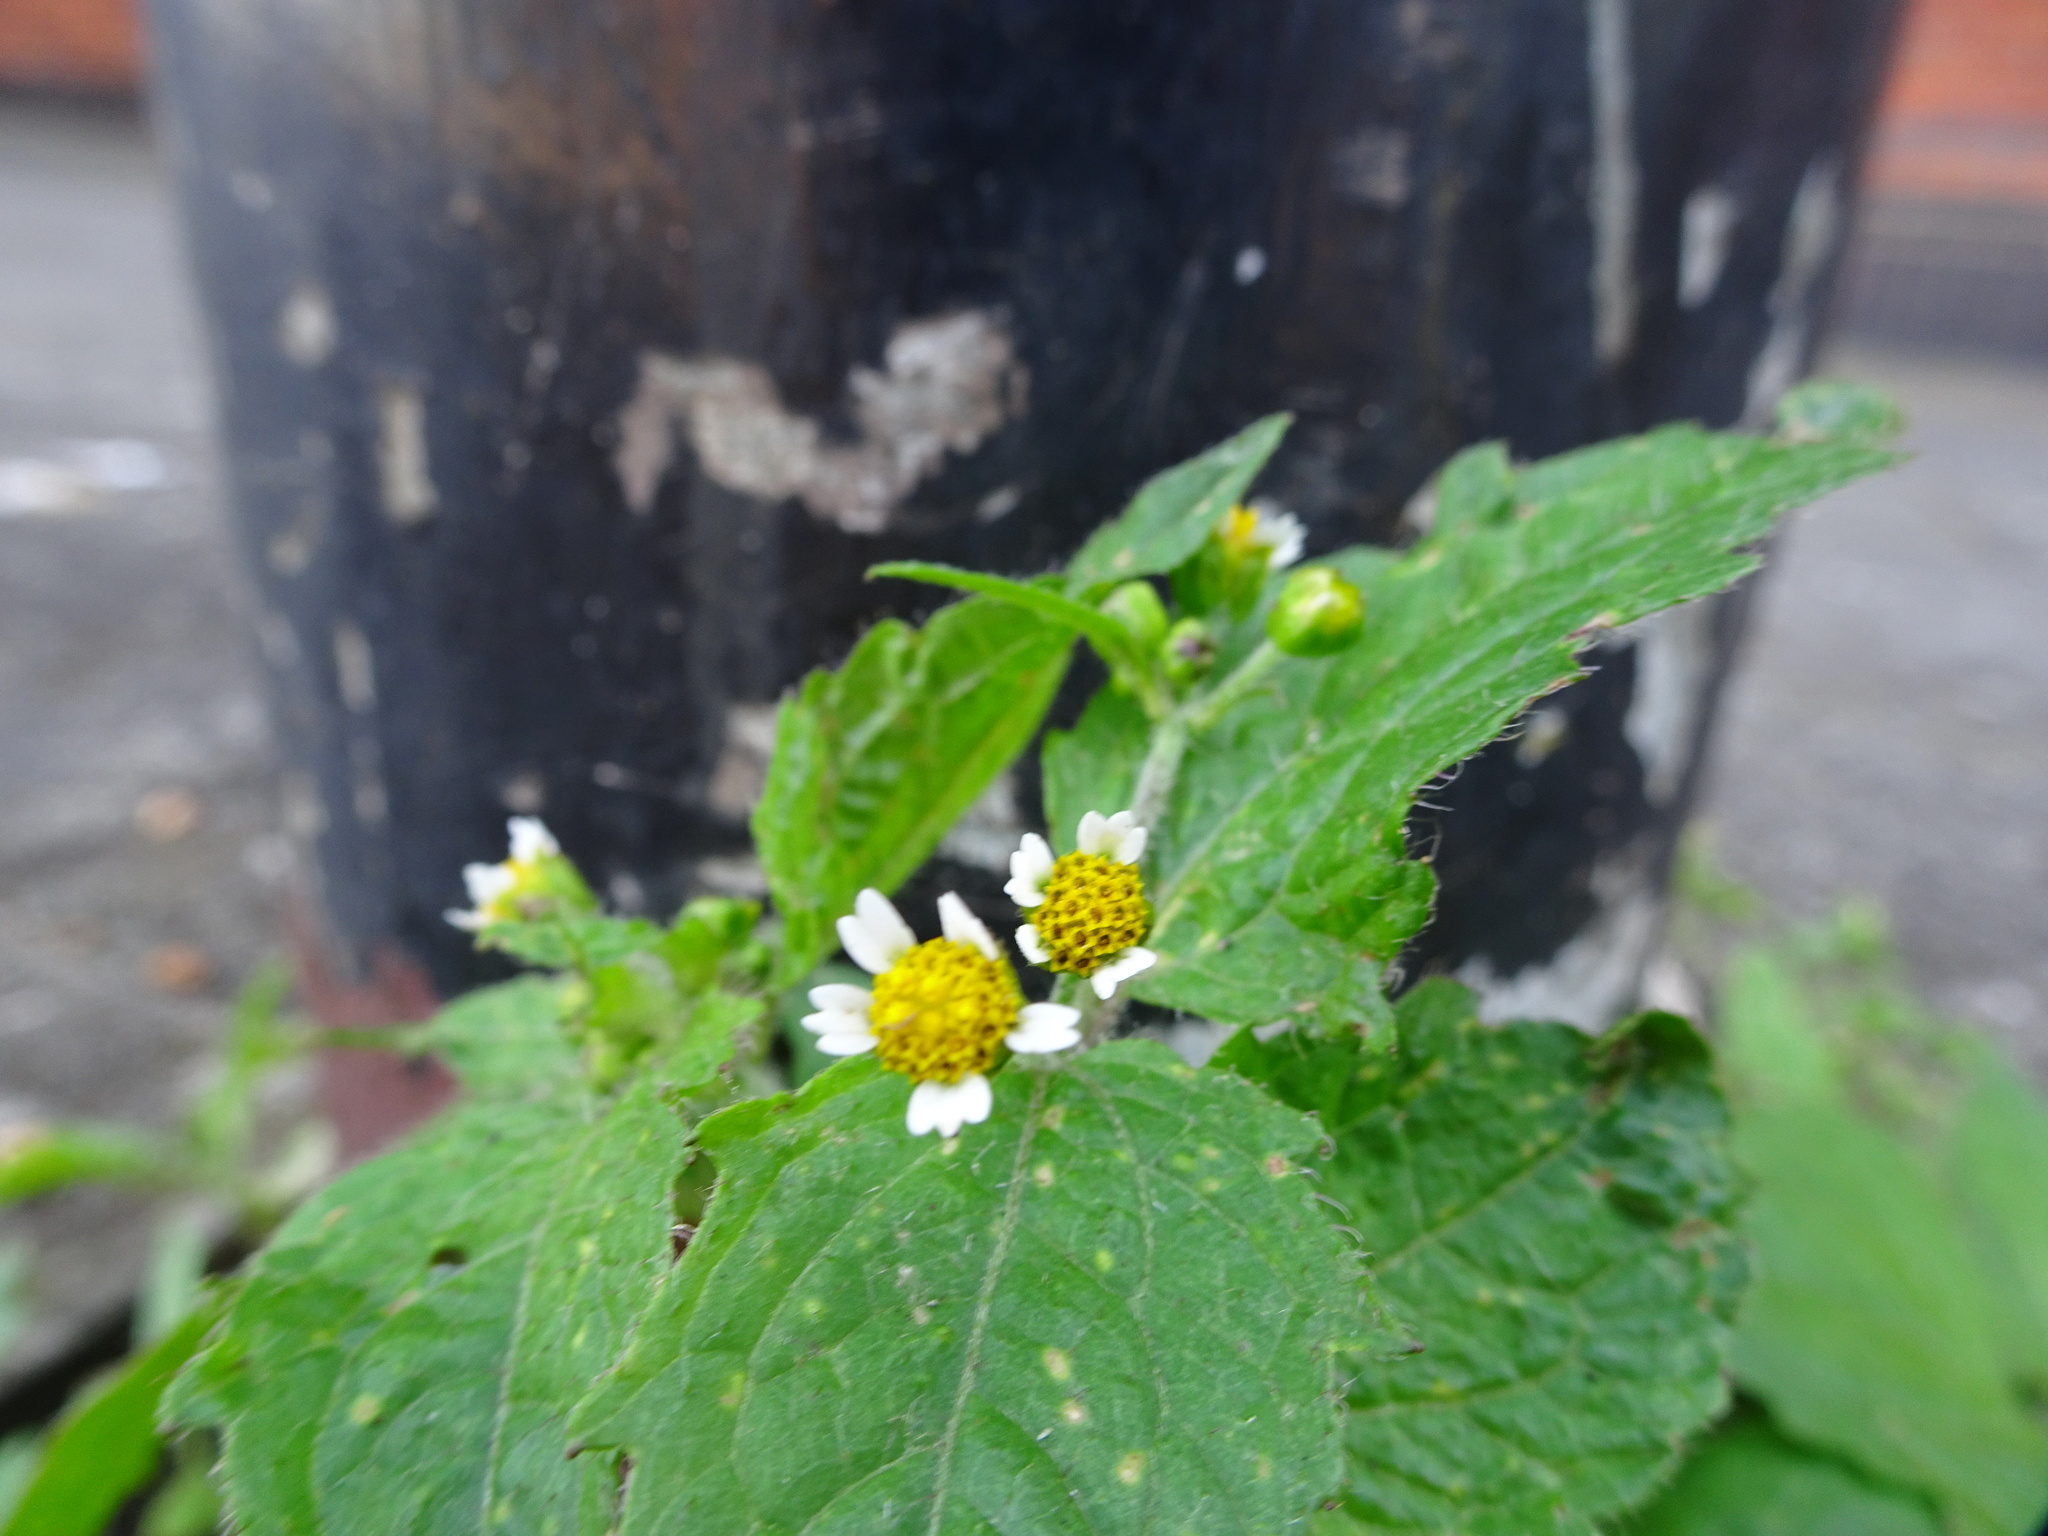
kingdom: Plantae
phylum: Tracheophyta
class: Magnoliopsida
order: Asterales
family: Asteraceae
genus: Galinsoga
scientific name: Galinsoga quadriradiata
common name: Shaggy soldier
